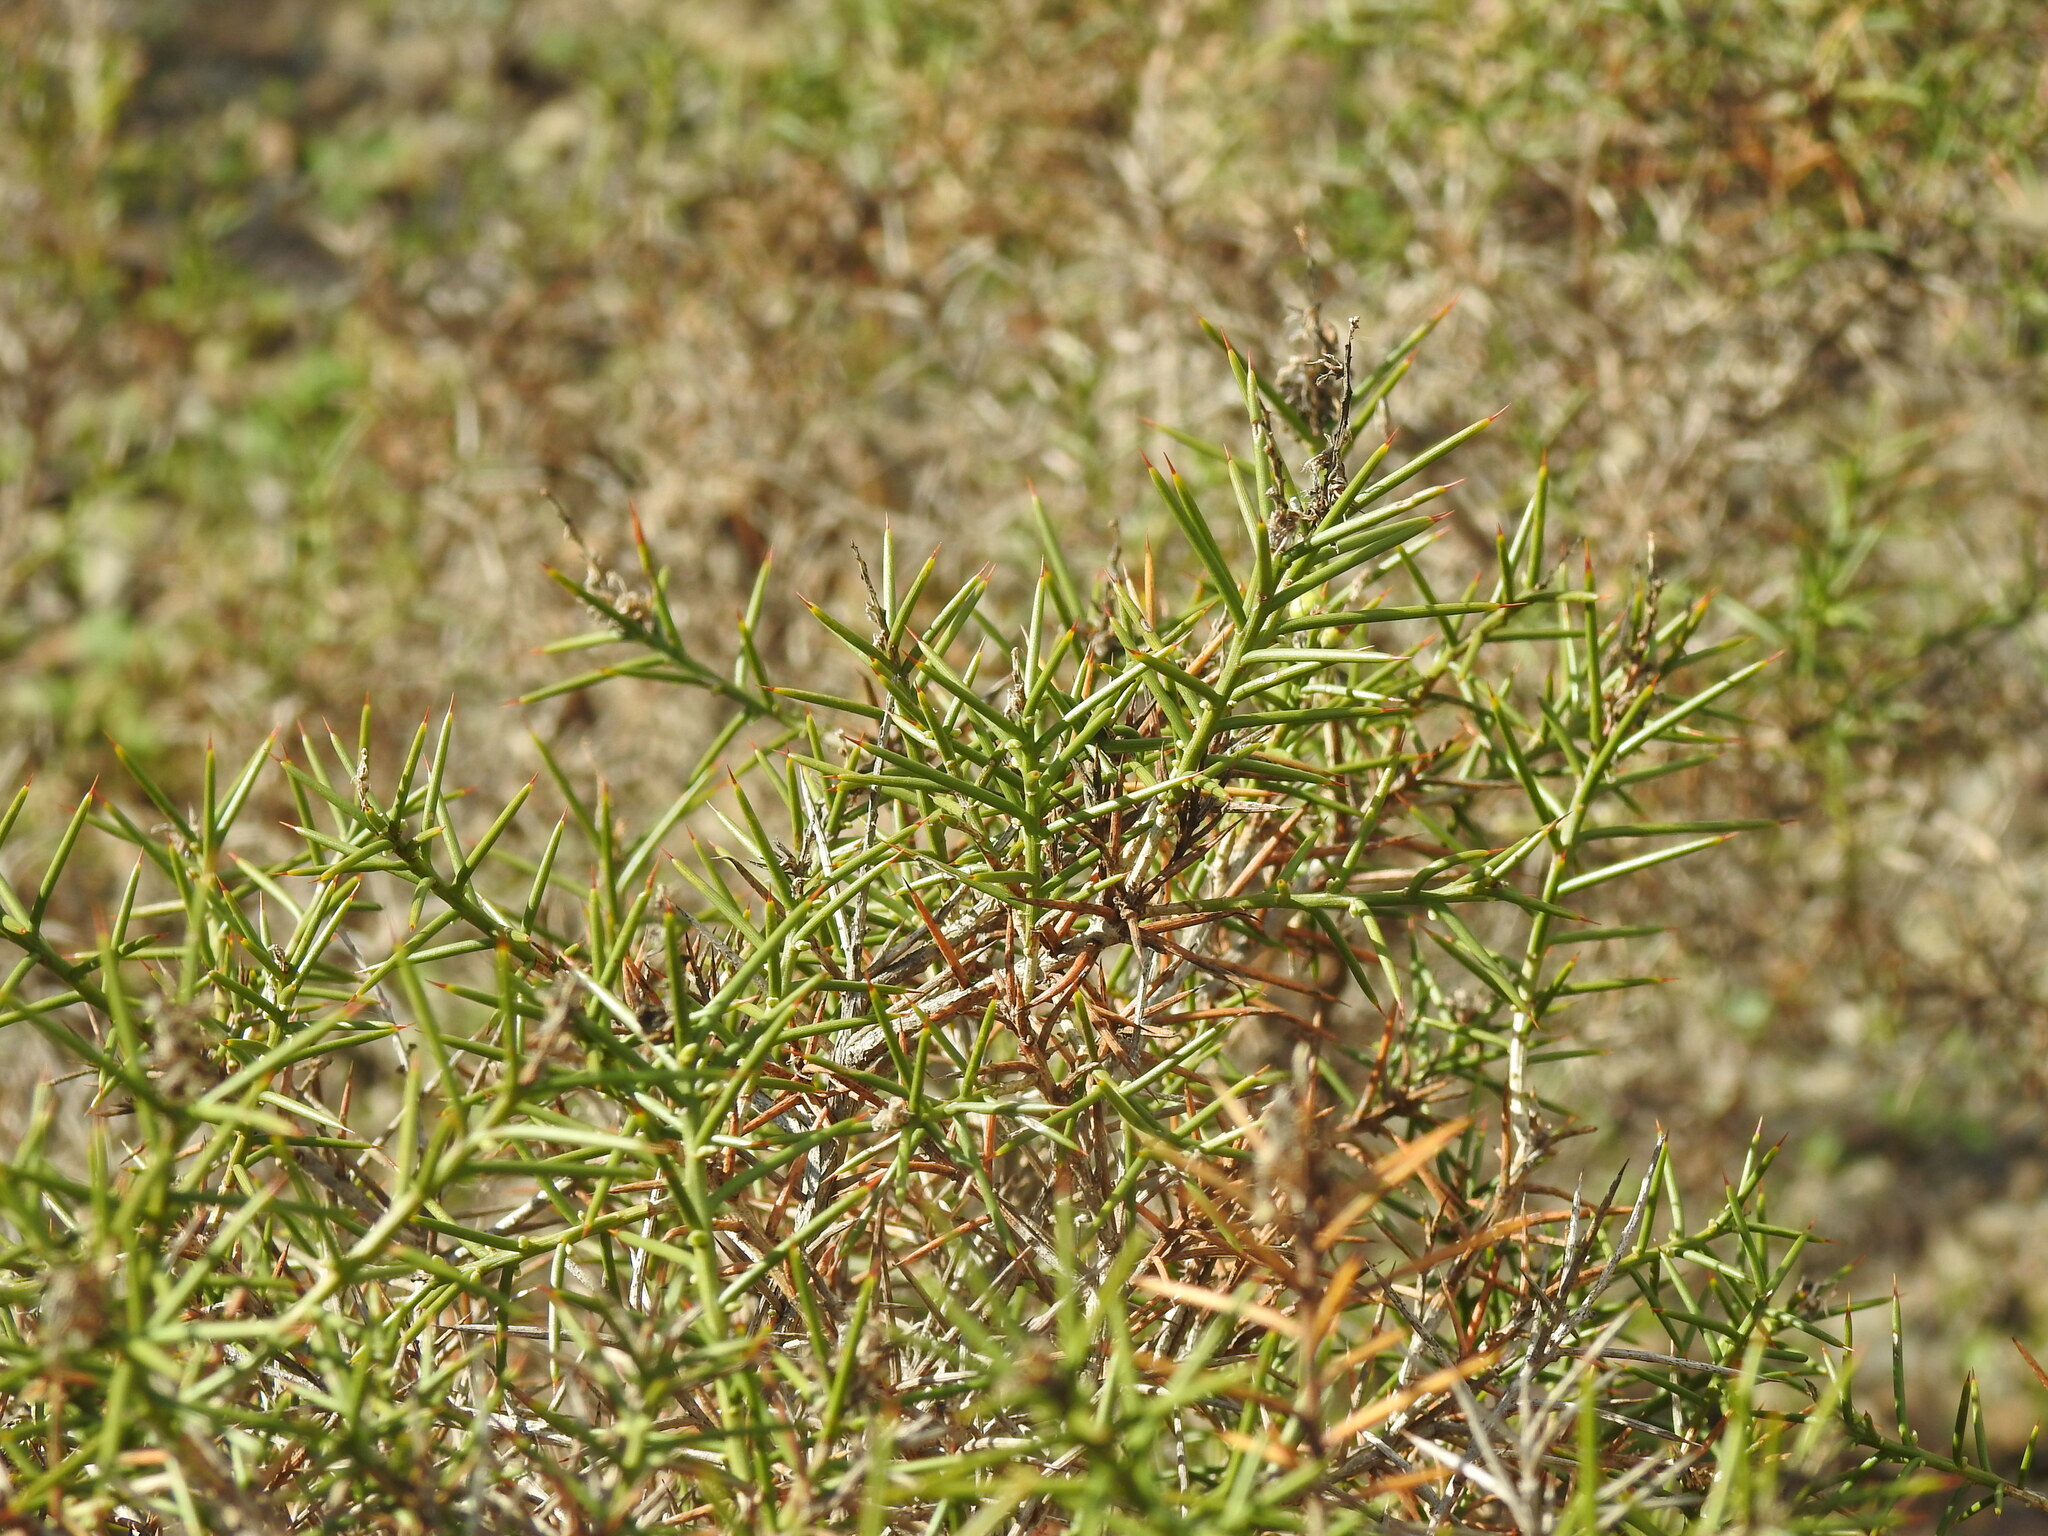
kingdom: Plantae
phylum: Tracheophyta
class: Magnoliopsida
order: Fabales
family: Fabaceae
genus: Genista
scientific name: Genista hirsuta
